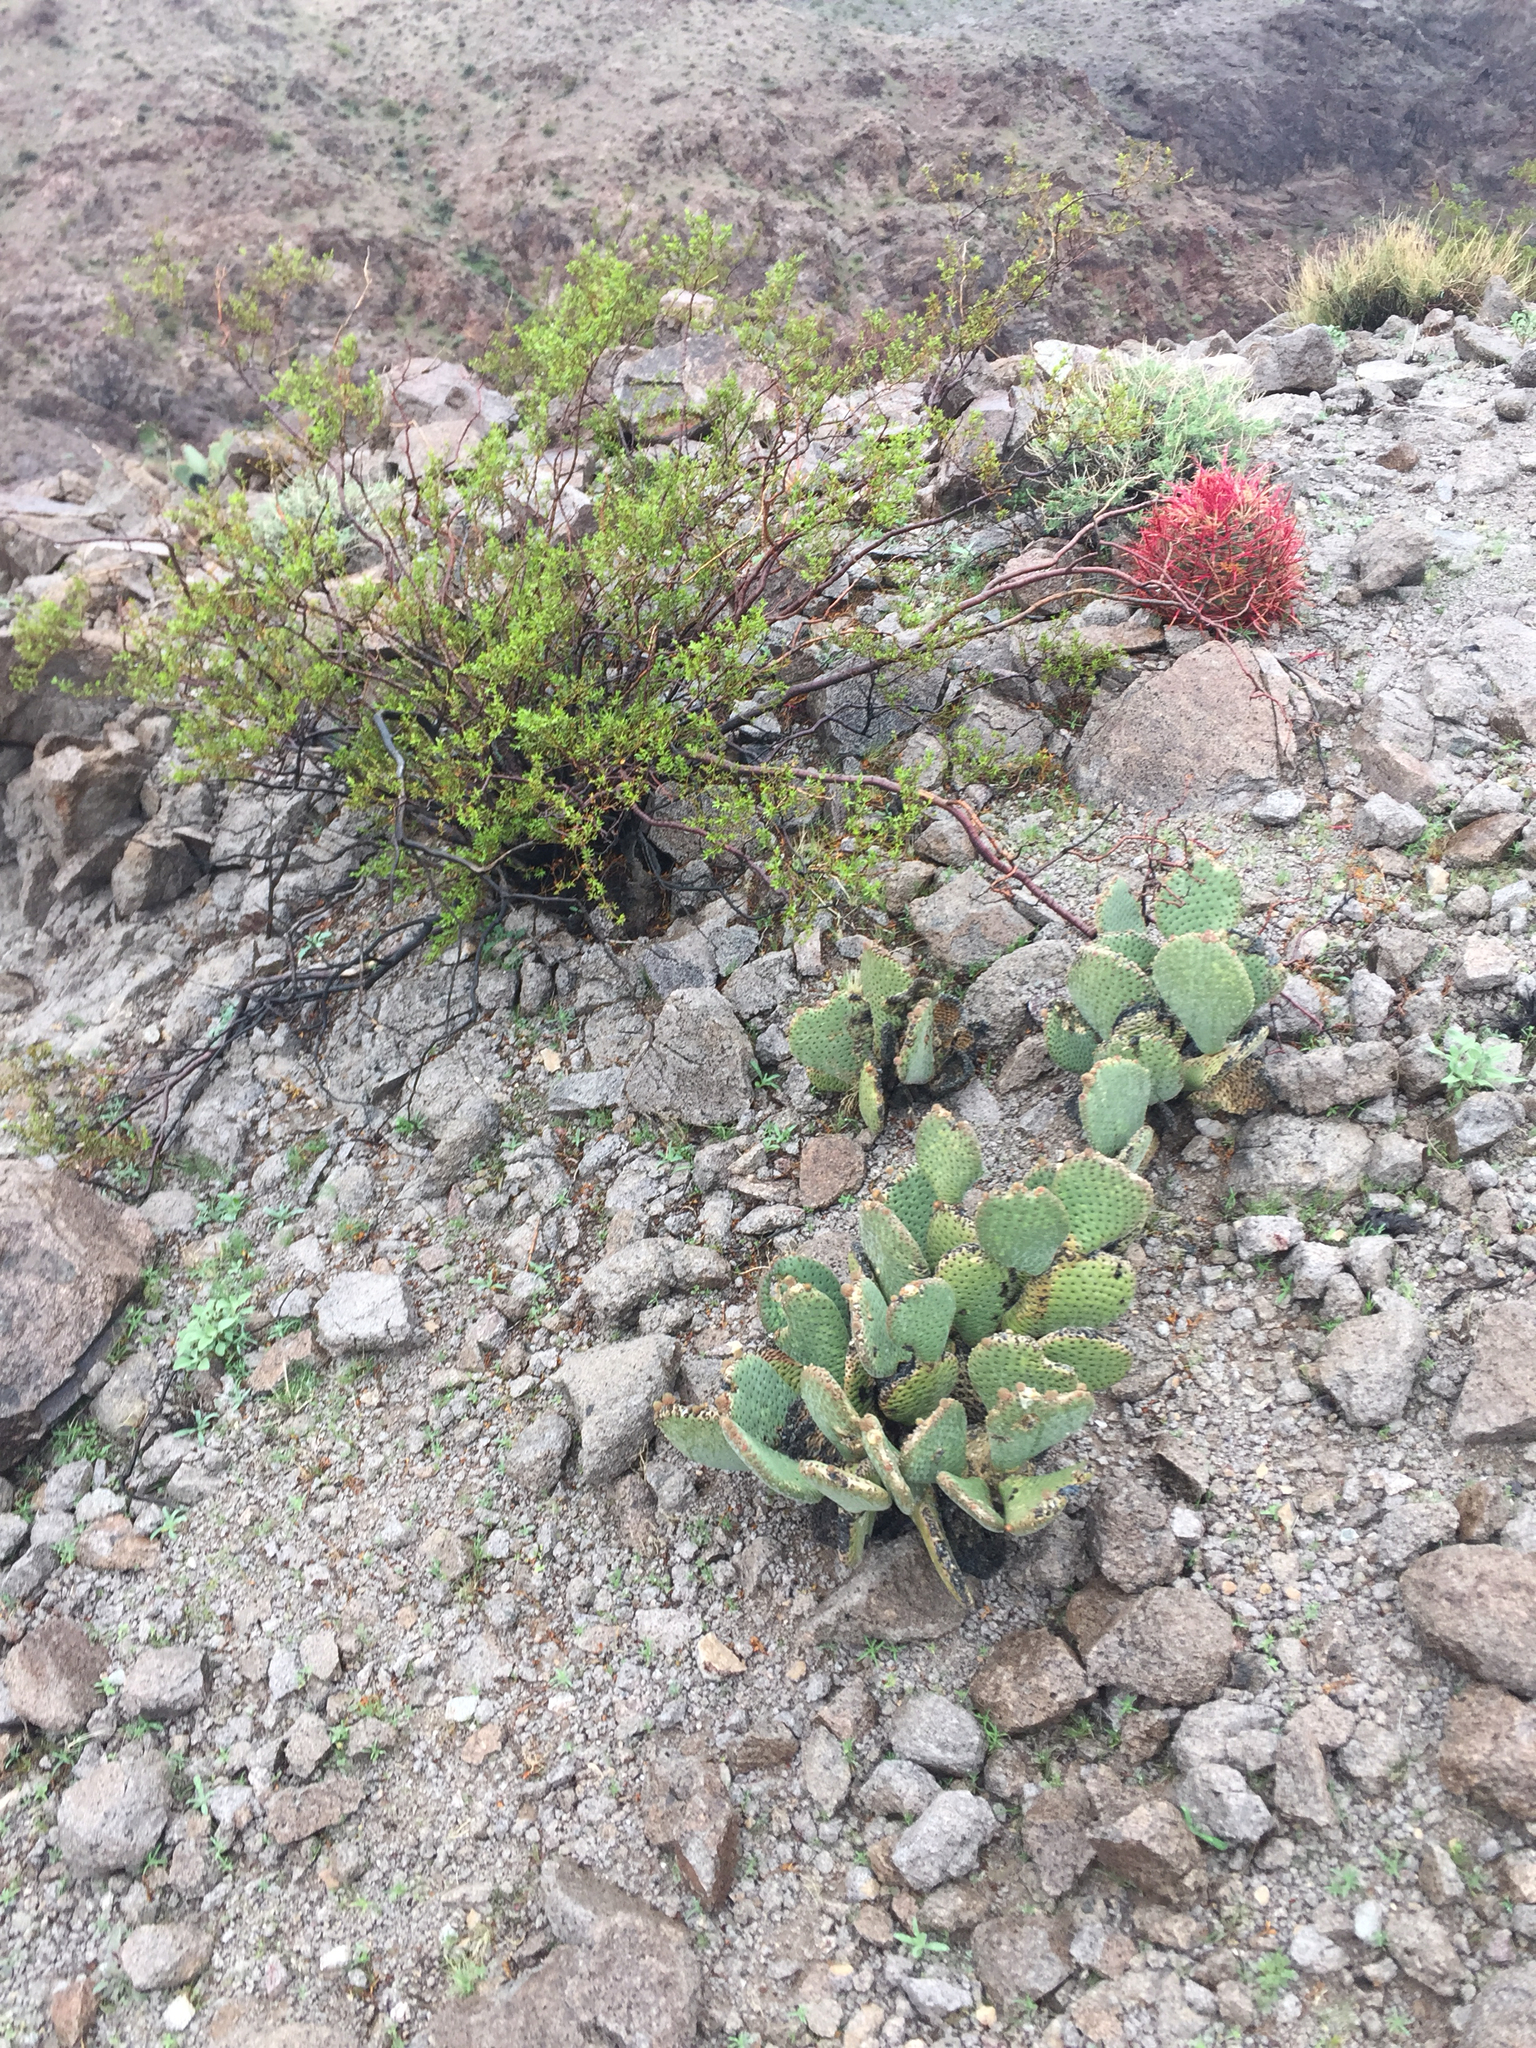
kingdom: Plantae
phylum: Tracheophyta
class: Magnoliopsida
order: Caryophyllales
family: Cactaceae
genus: Opuntia
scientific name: Opuntia basilaris
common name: Beavertail prickly-pear
